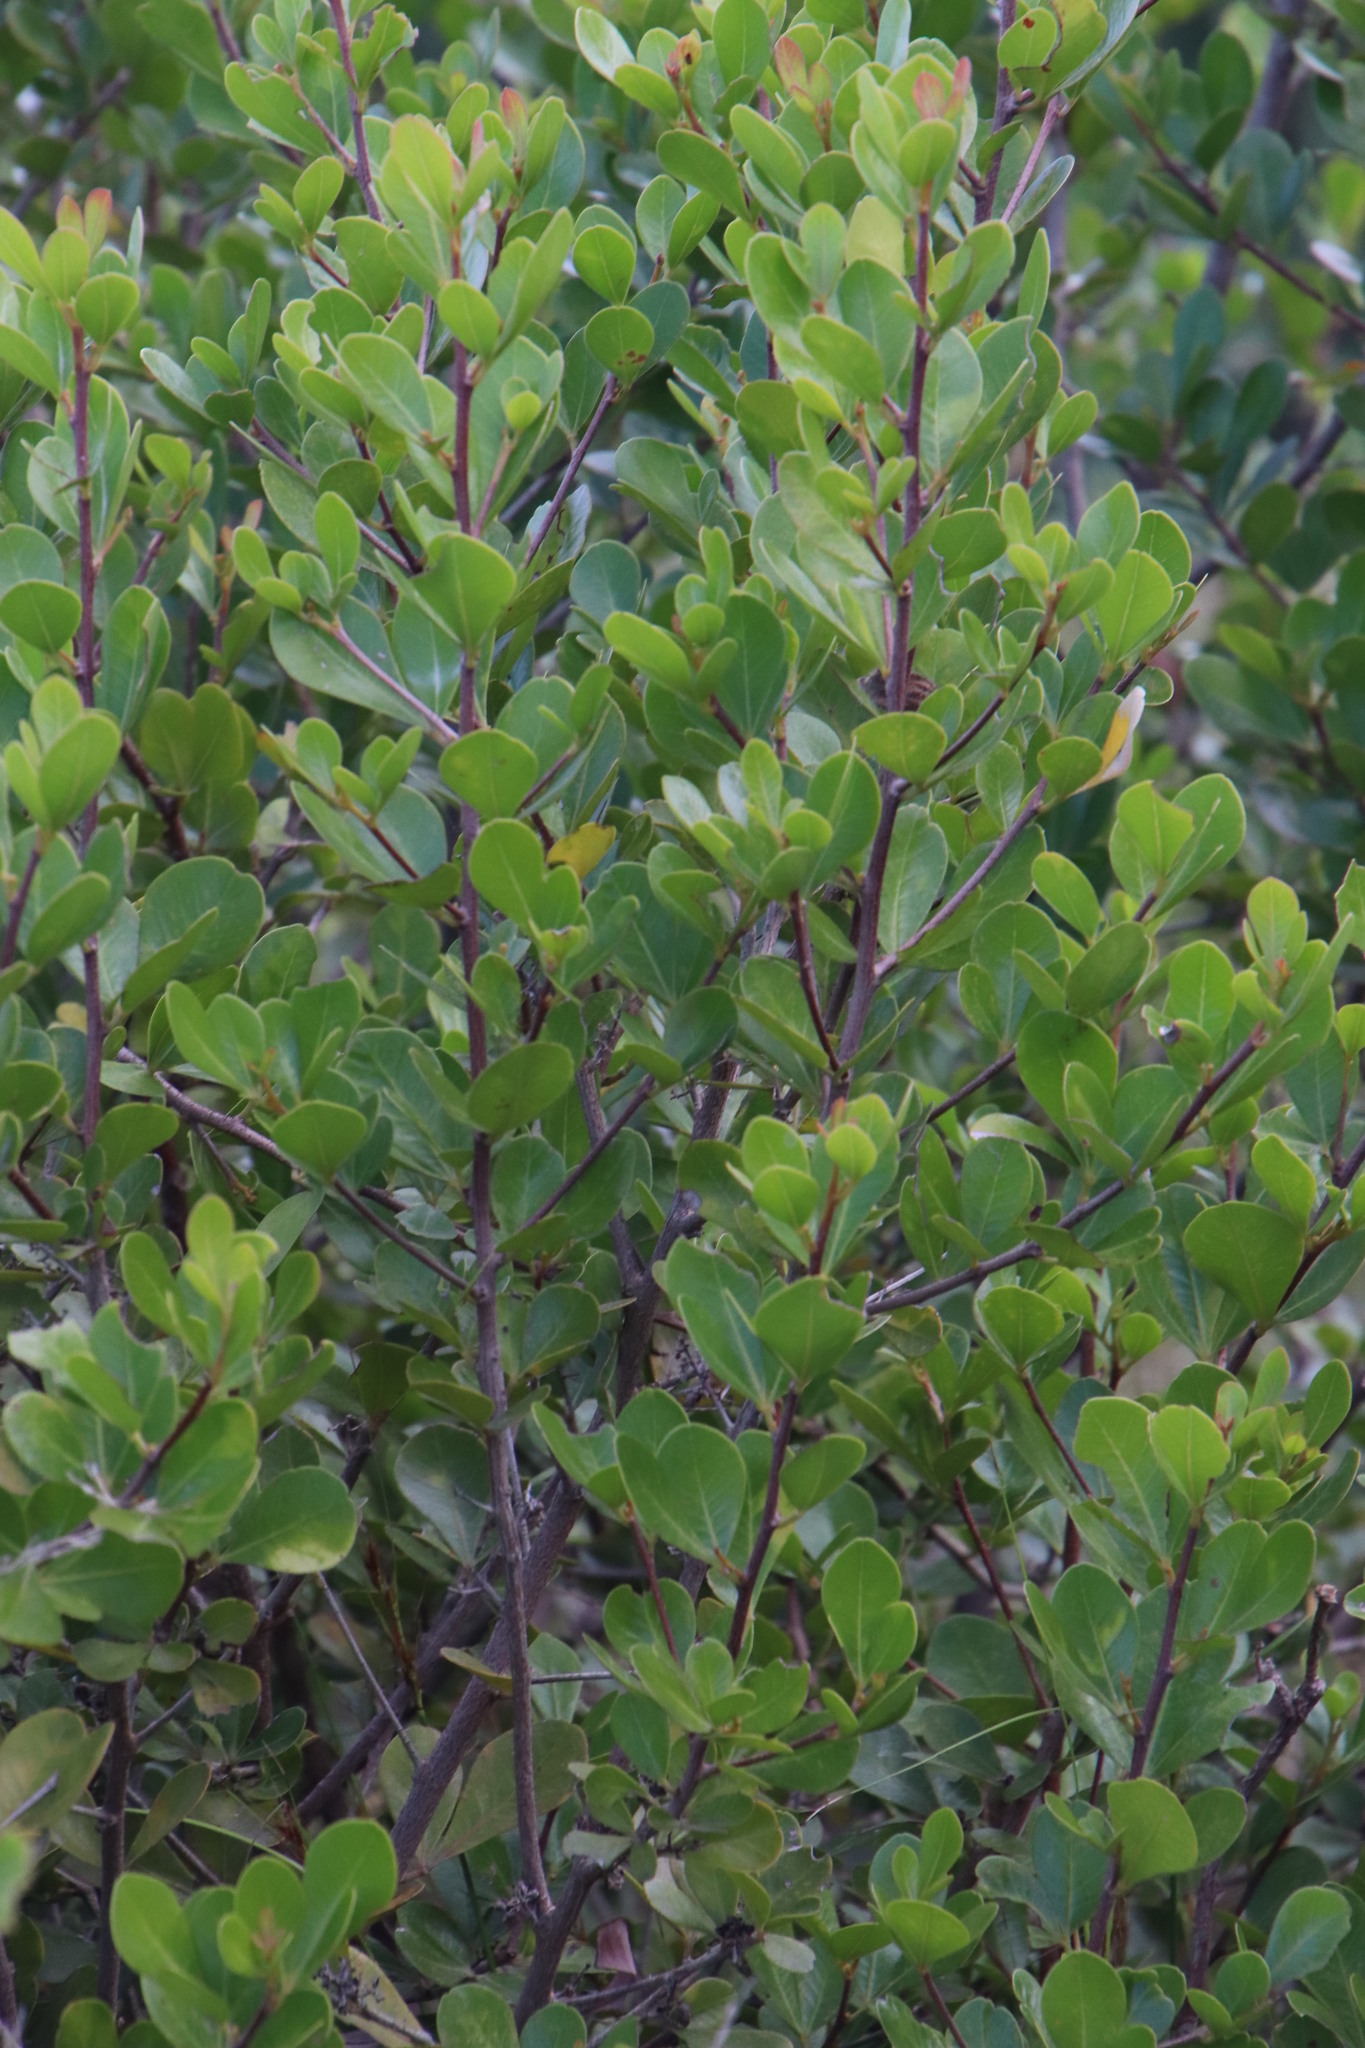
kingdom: Plantae
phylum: Tracheophyta
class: Magnoliopsida
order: Sapindales
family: Anacardiaceae
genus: Searsia
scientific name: Searsia lucida
